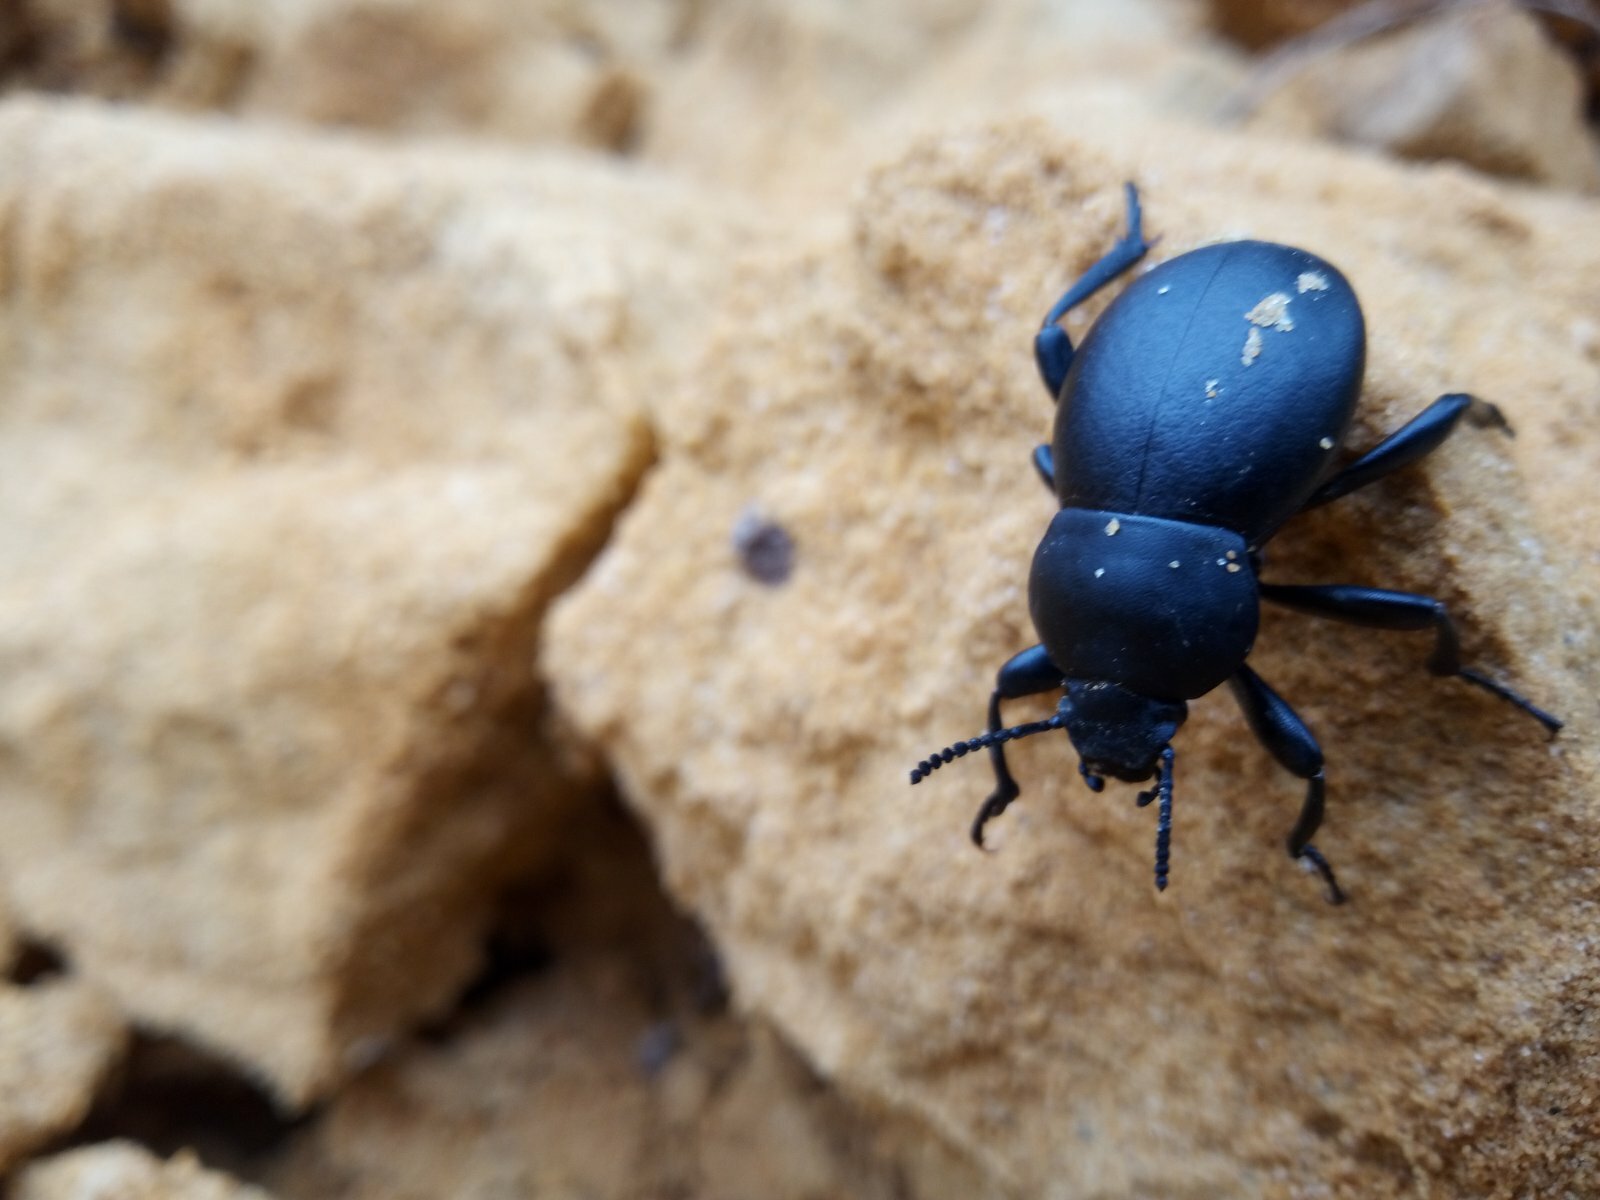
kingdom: Animalia
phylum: Arthropoda
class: Insecta
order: Coleoptera
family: Tenebrionidae
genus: Gnaptor
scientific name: Gnaptor spinimanus
